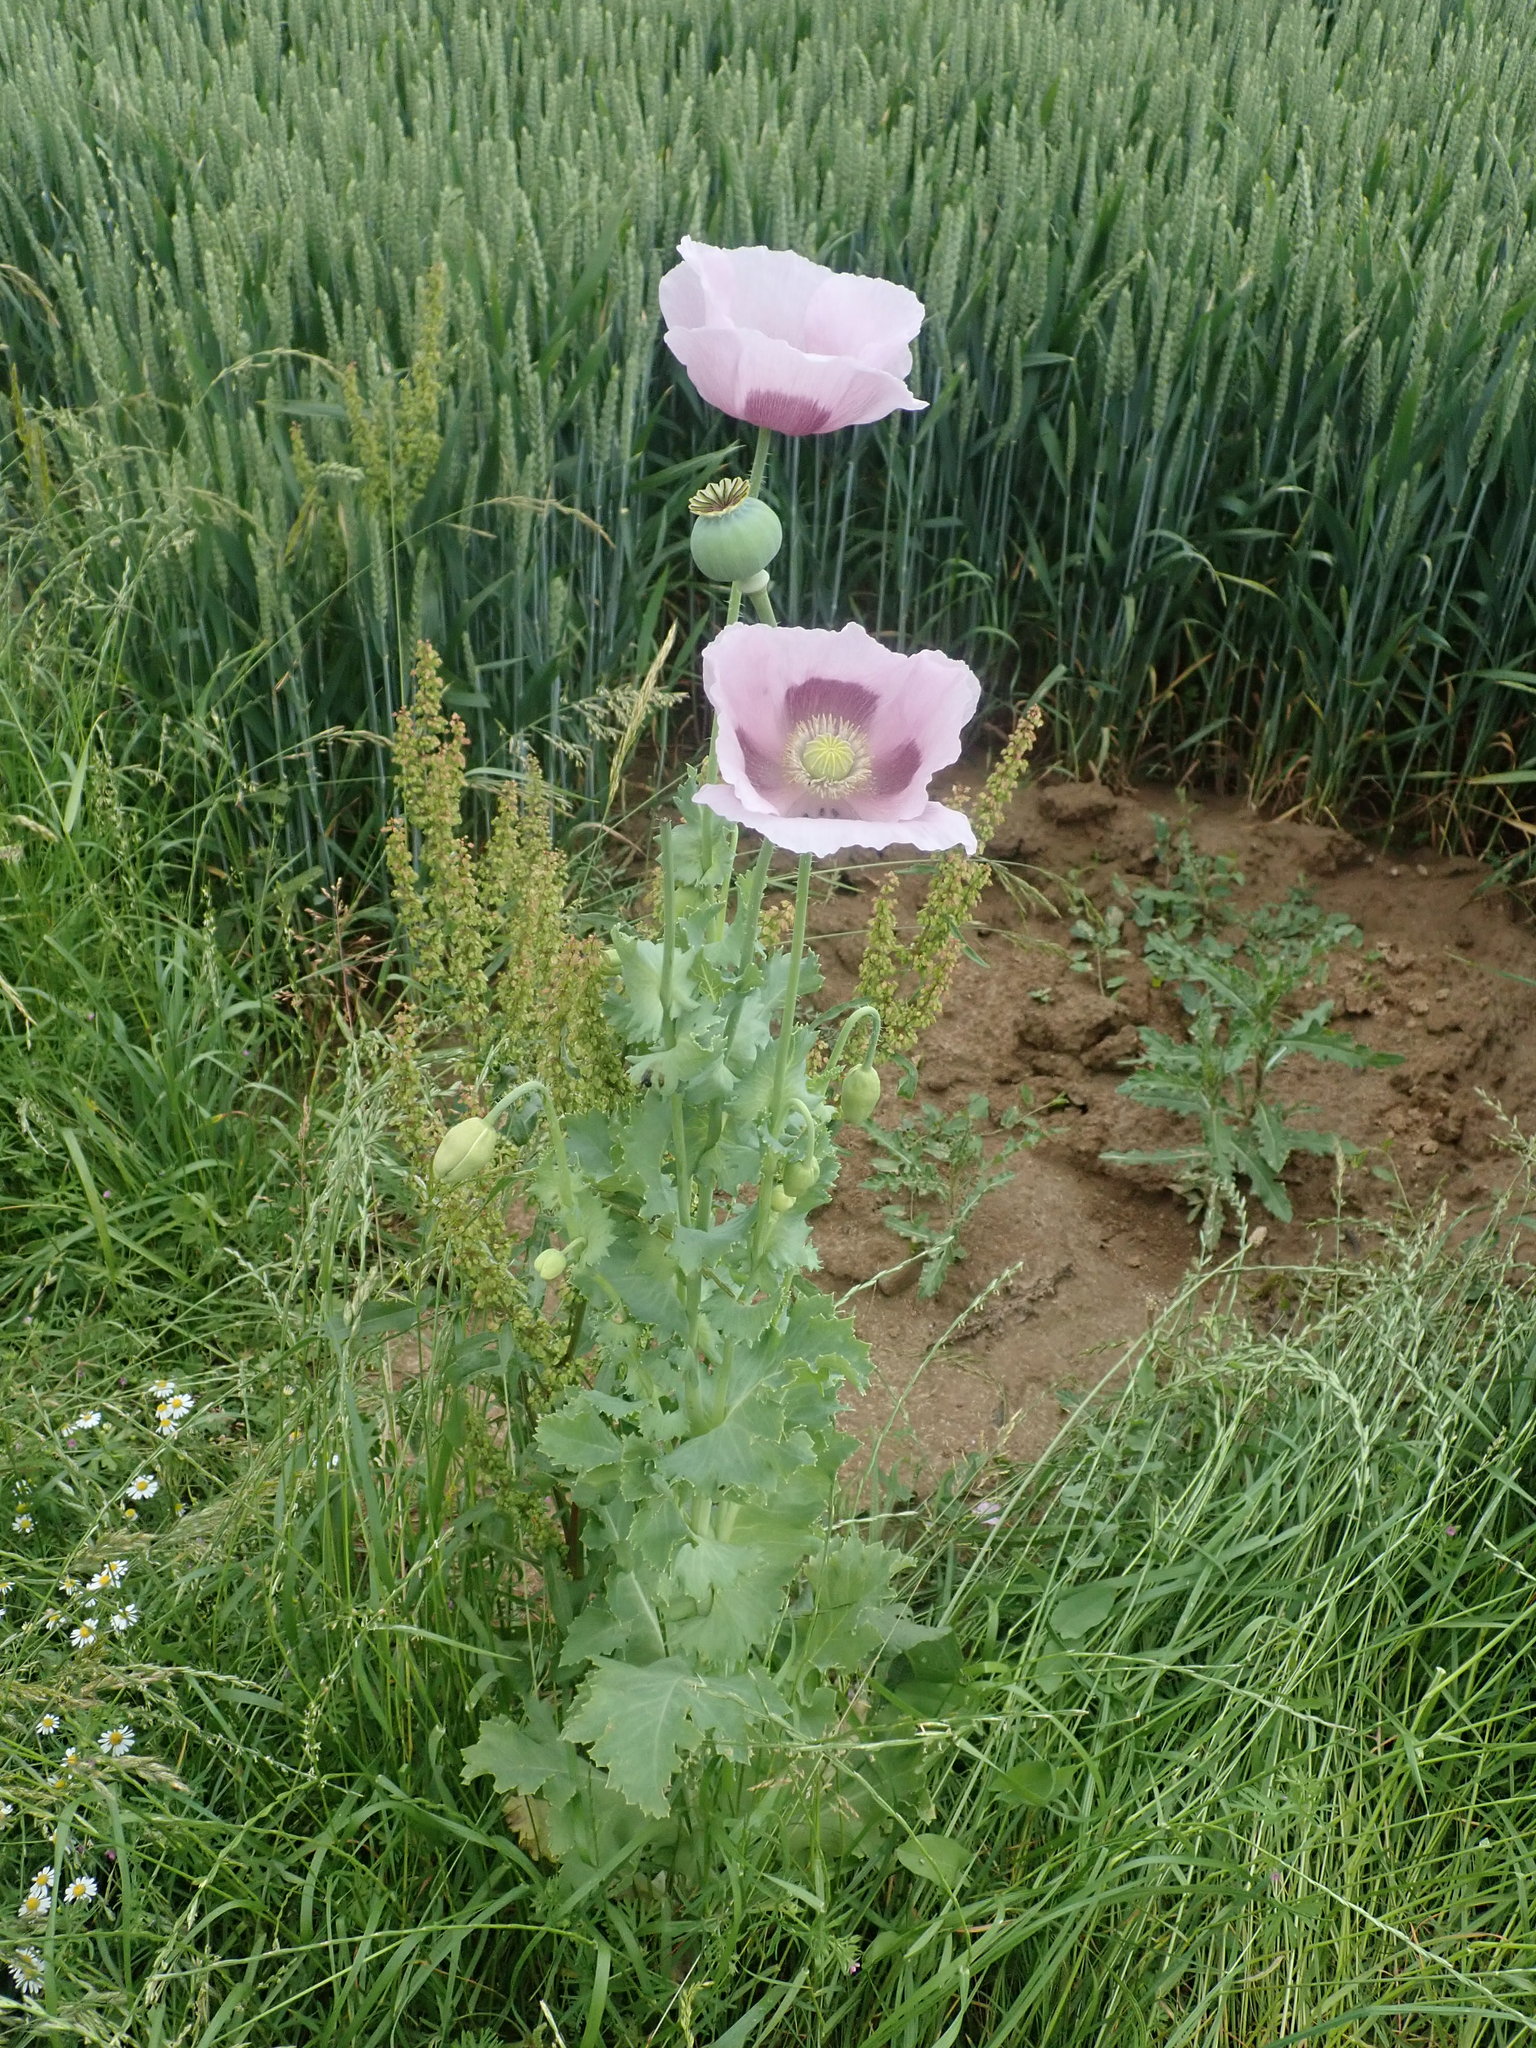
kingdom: Plantae
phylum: Tracheophyta
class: Magnoliopsida
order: Ranunculales
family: Papaveraceae
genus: Papaver
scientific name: Papaver somniferum
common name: Opium poppy
